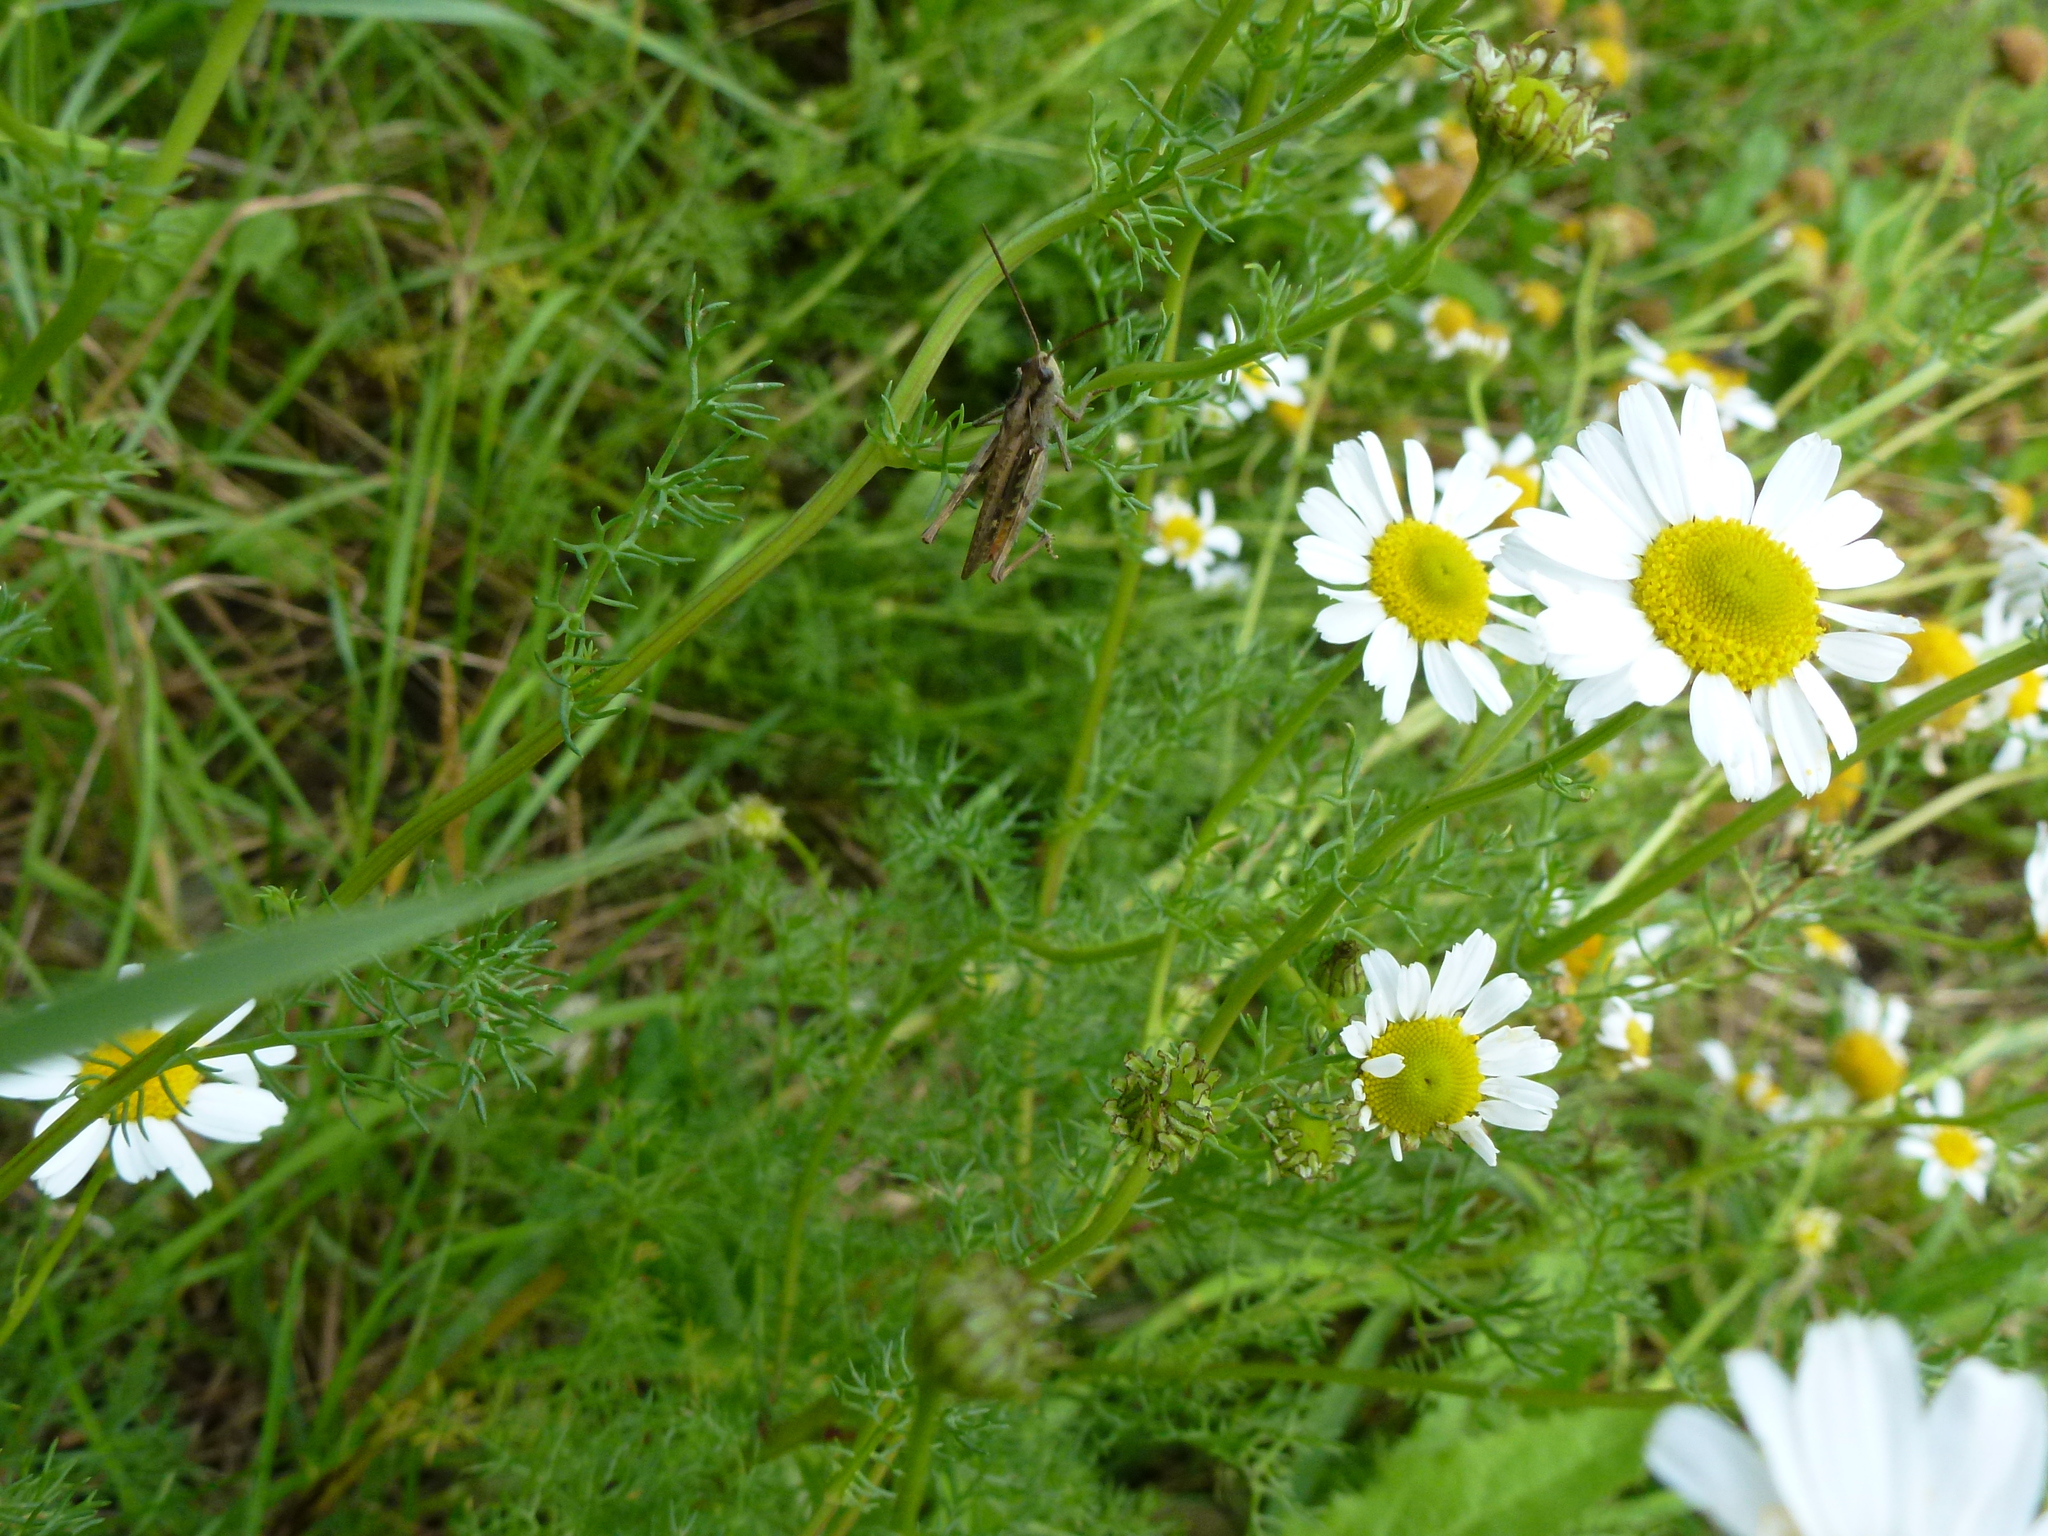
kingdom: Animalia
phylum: Arthropoda
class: Insecta
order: Orthoptera
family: Acrididae
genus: Chorthippus
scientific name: Chorthippus brunneus
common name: Field grasshopper
